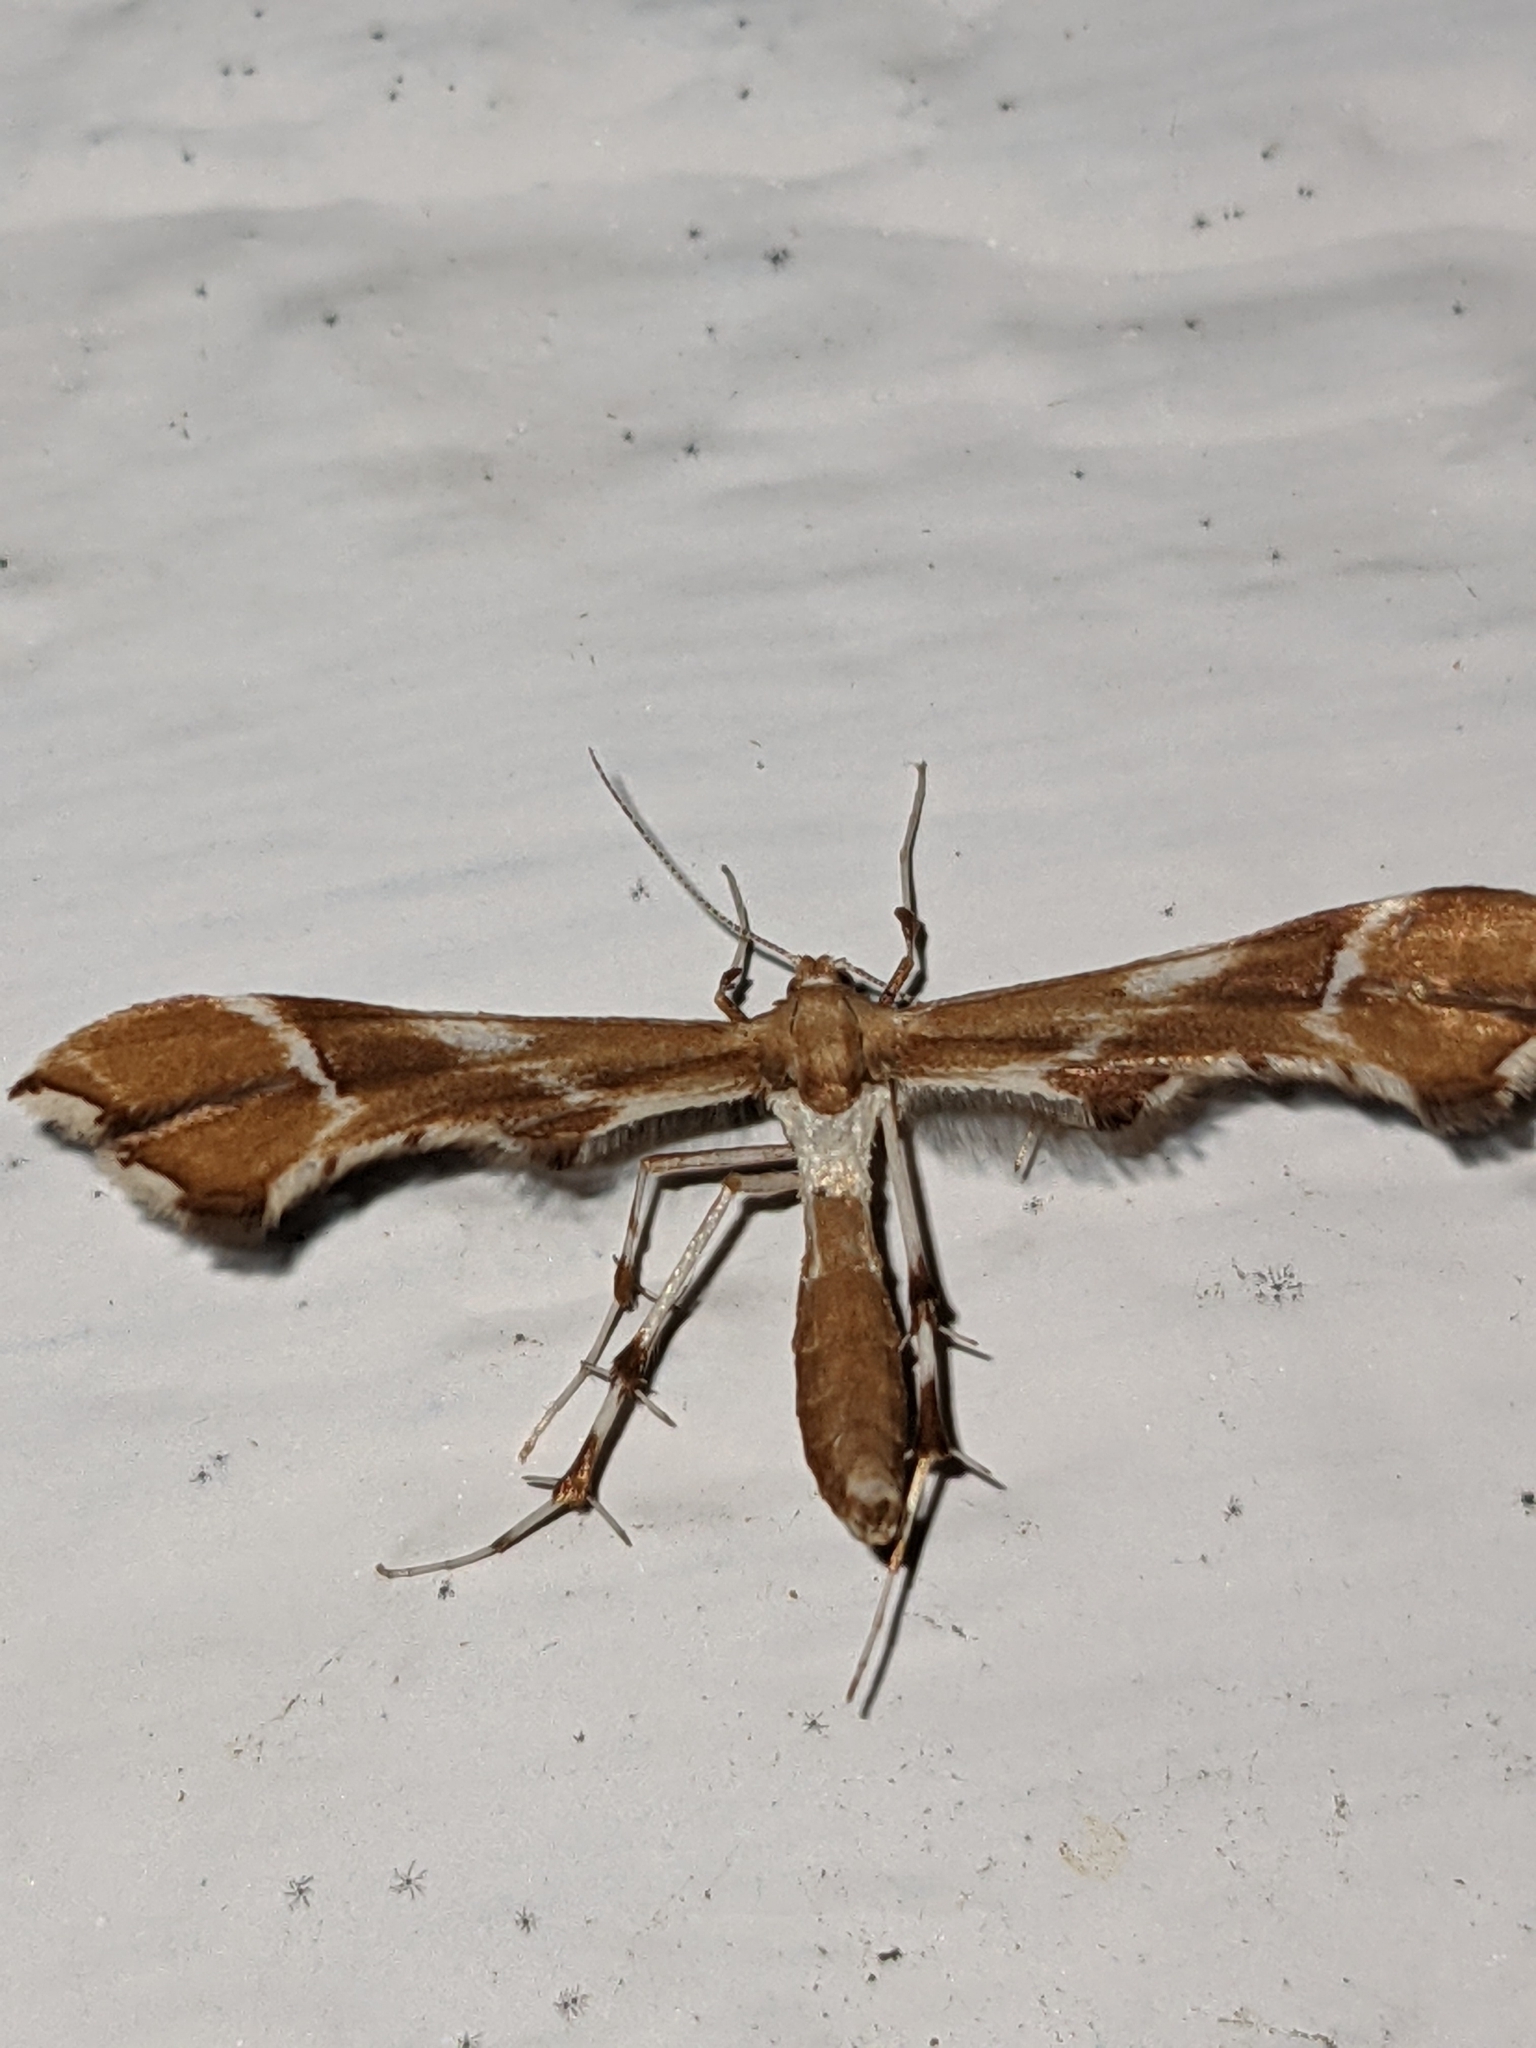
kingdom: Animalia
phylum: Arthropoda
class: Insecta
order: Lepidoptera
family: Pterophoridae
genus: Cnaemidophorus
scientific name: Cnaemidophorus rhododactyla
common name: Rose plume
